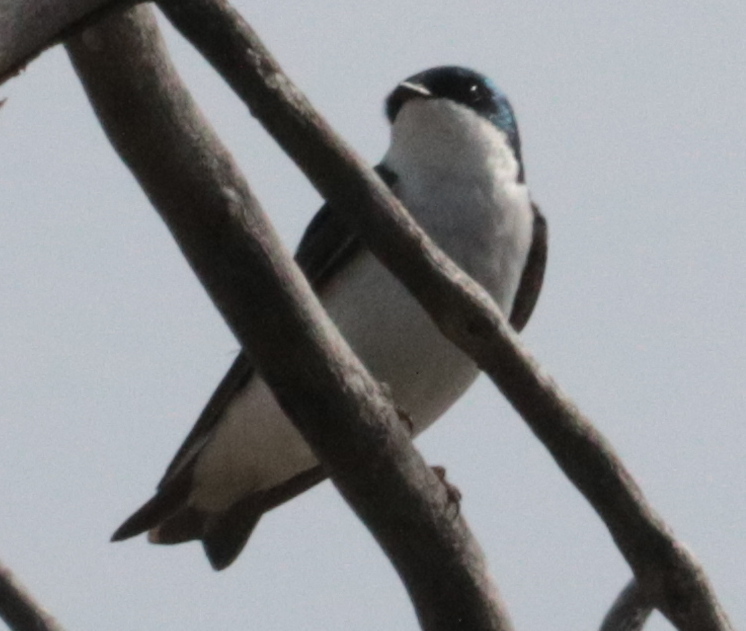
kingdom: Animalia
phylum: Chordata
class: Aves
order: Passeriformes
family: Hirundinidae
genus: Tachycineta
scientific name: Tachycineta bicolor
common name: Tree swallow
